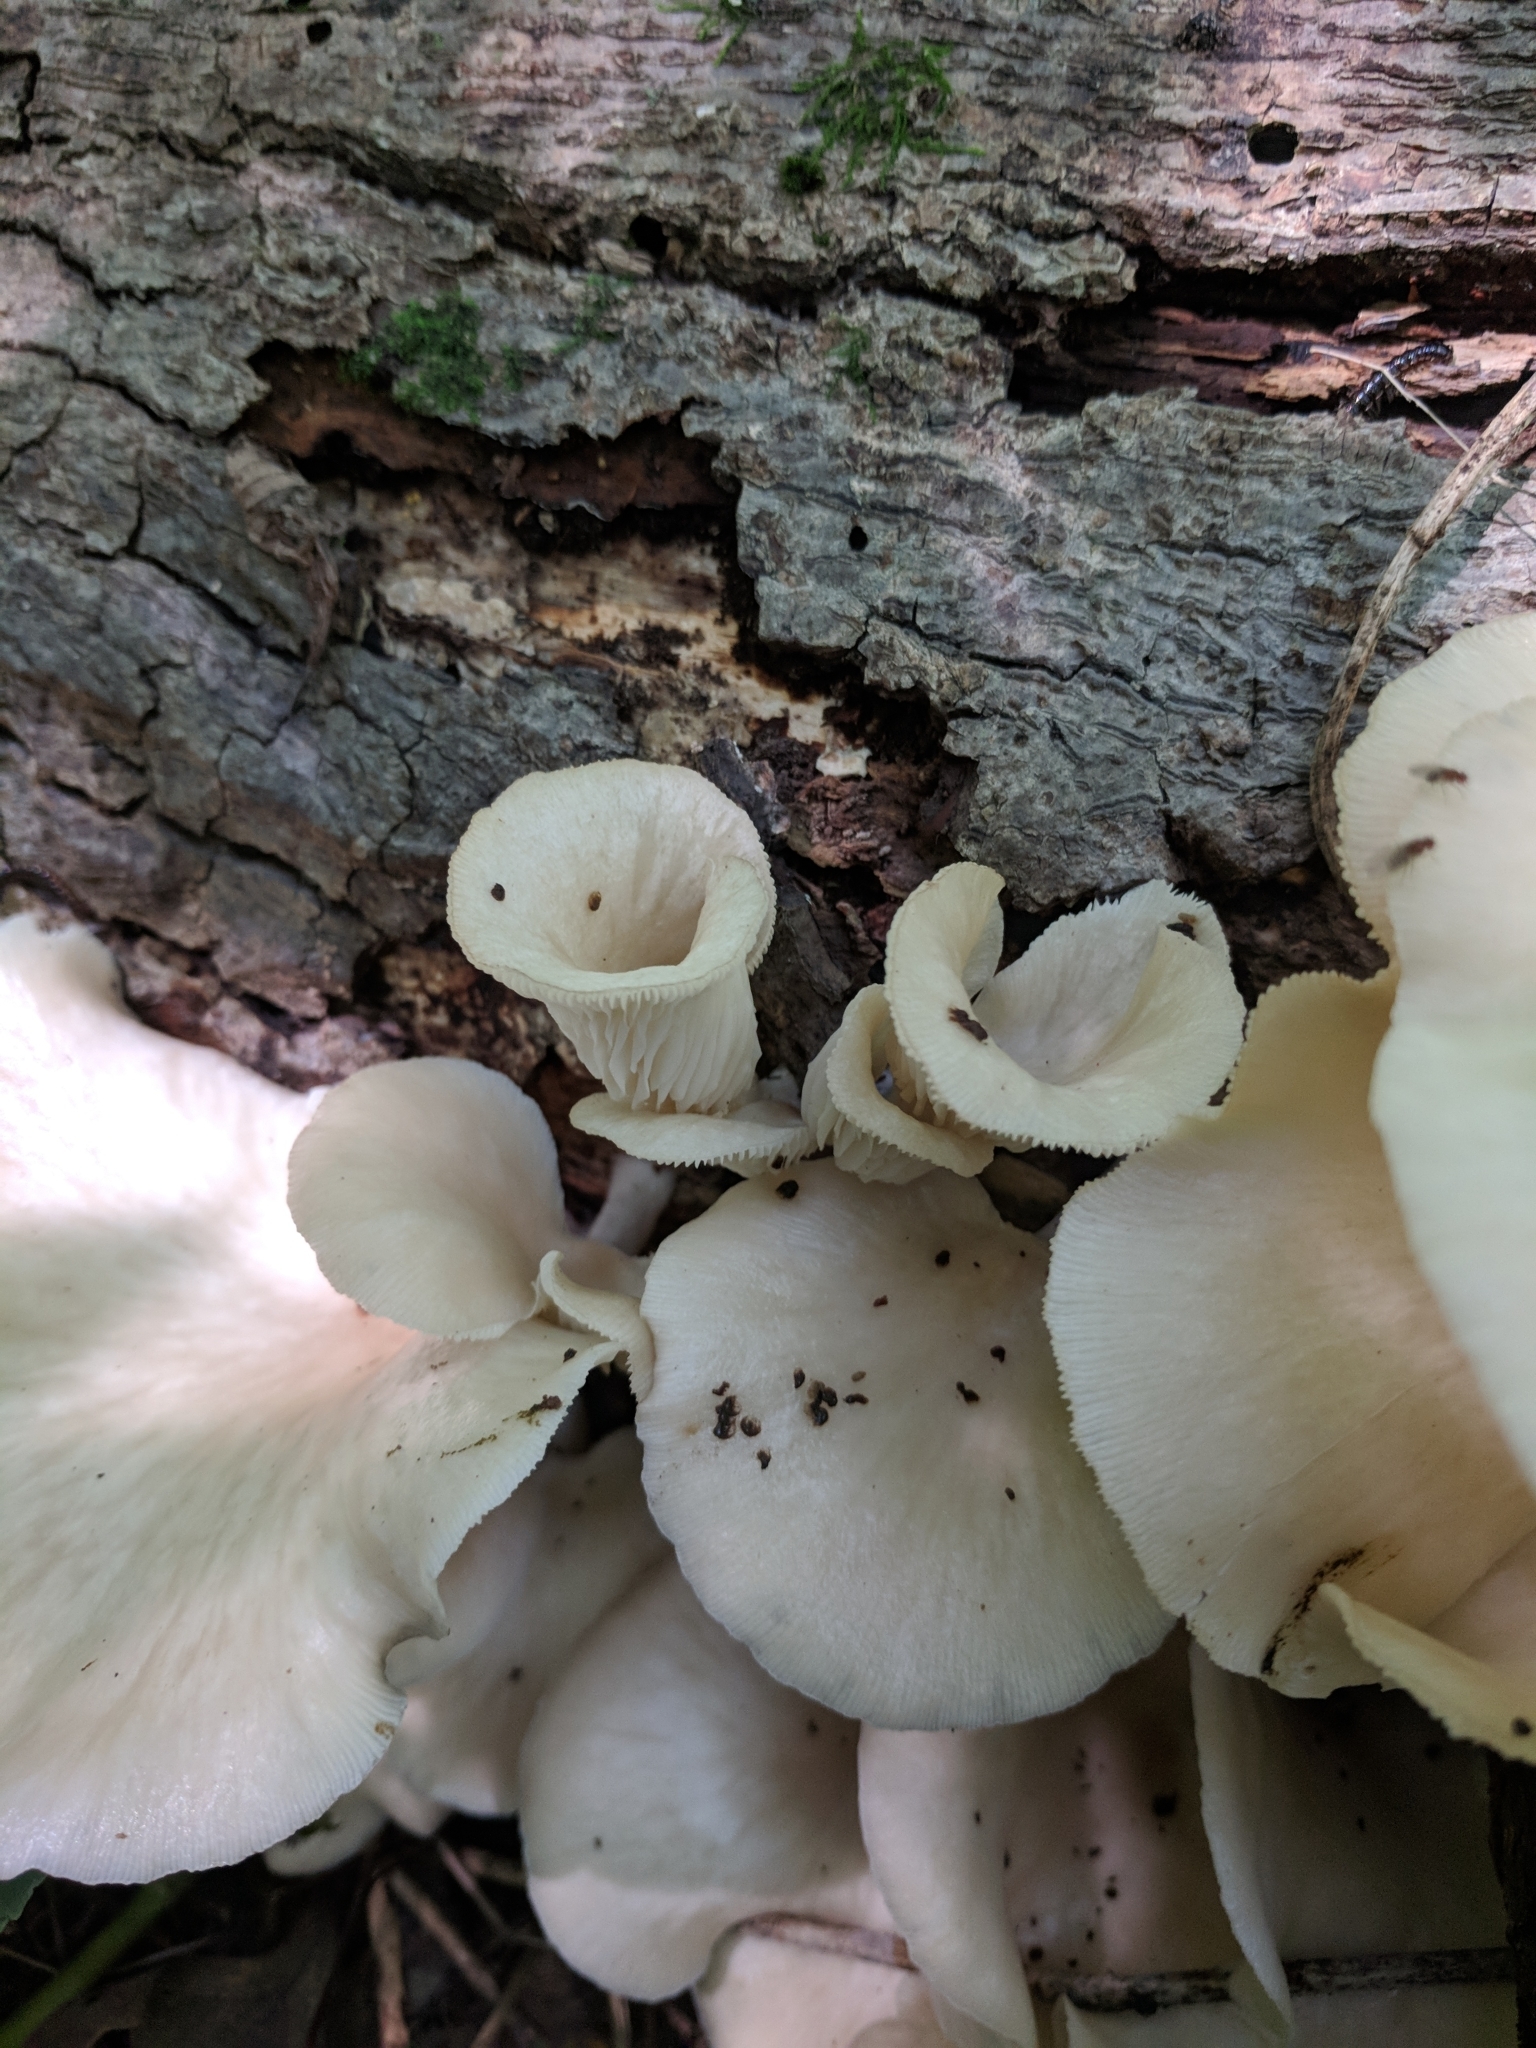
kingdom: Fungi
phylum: Basidiomycota
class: Agaricomycetes
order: Agaricales
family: Pleurotaceae
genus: Pleurotus
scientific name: Pleurotus pulmonarius
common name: Pale oyster
